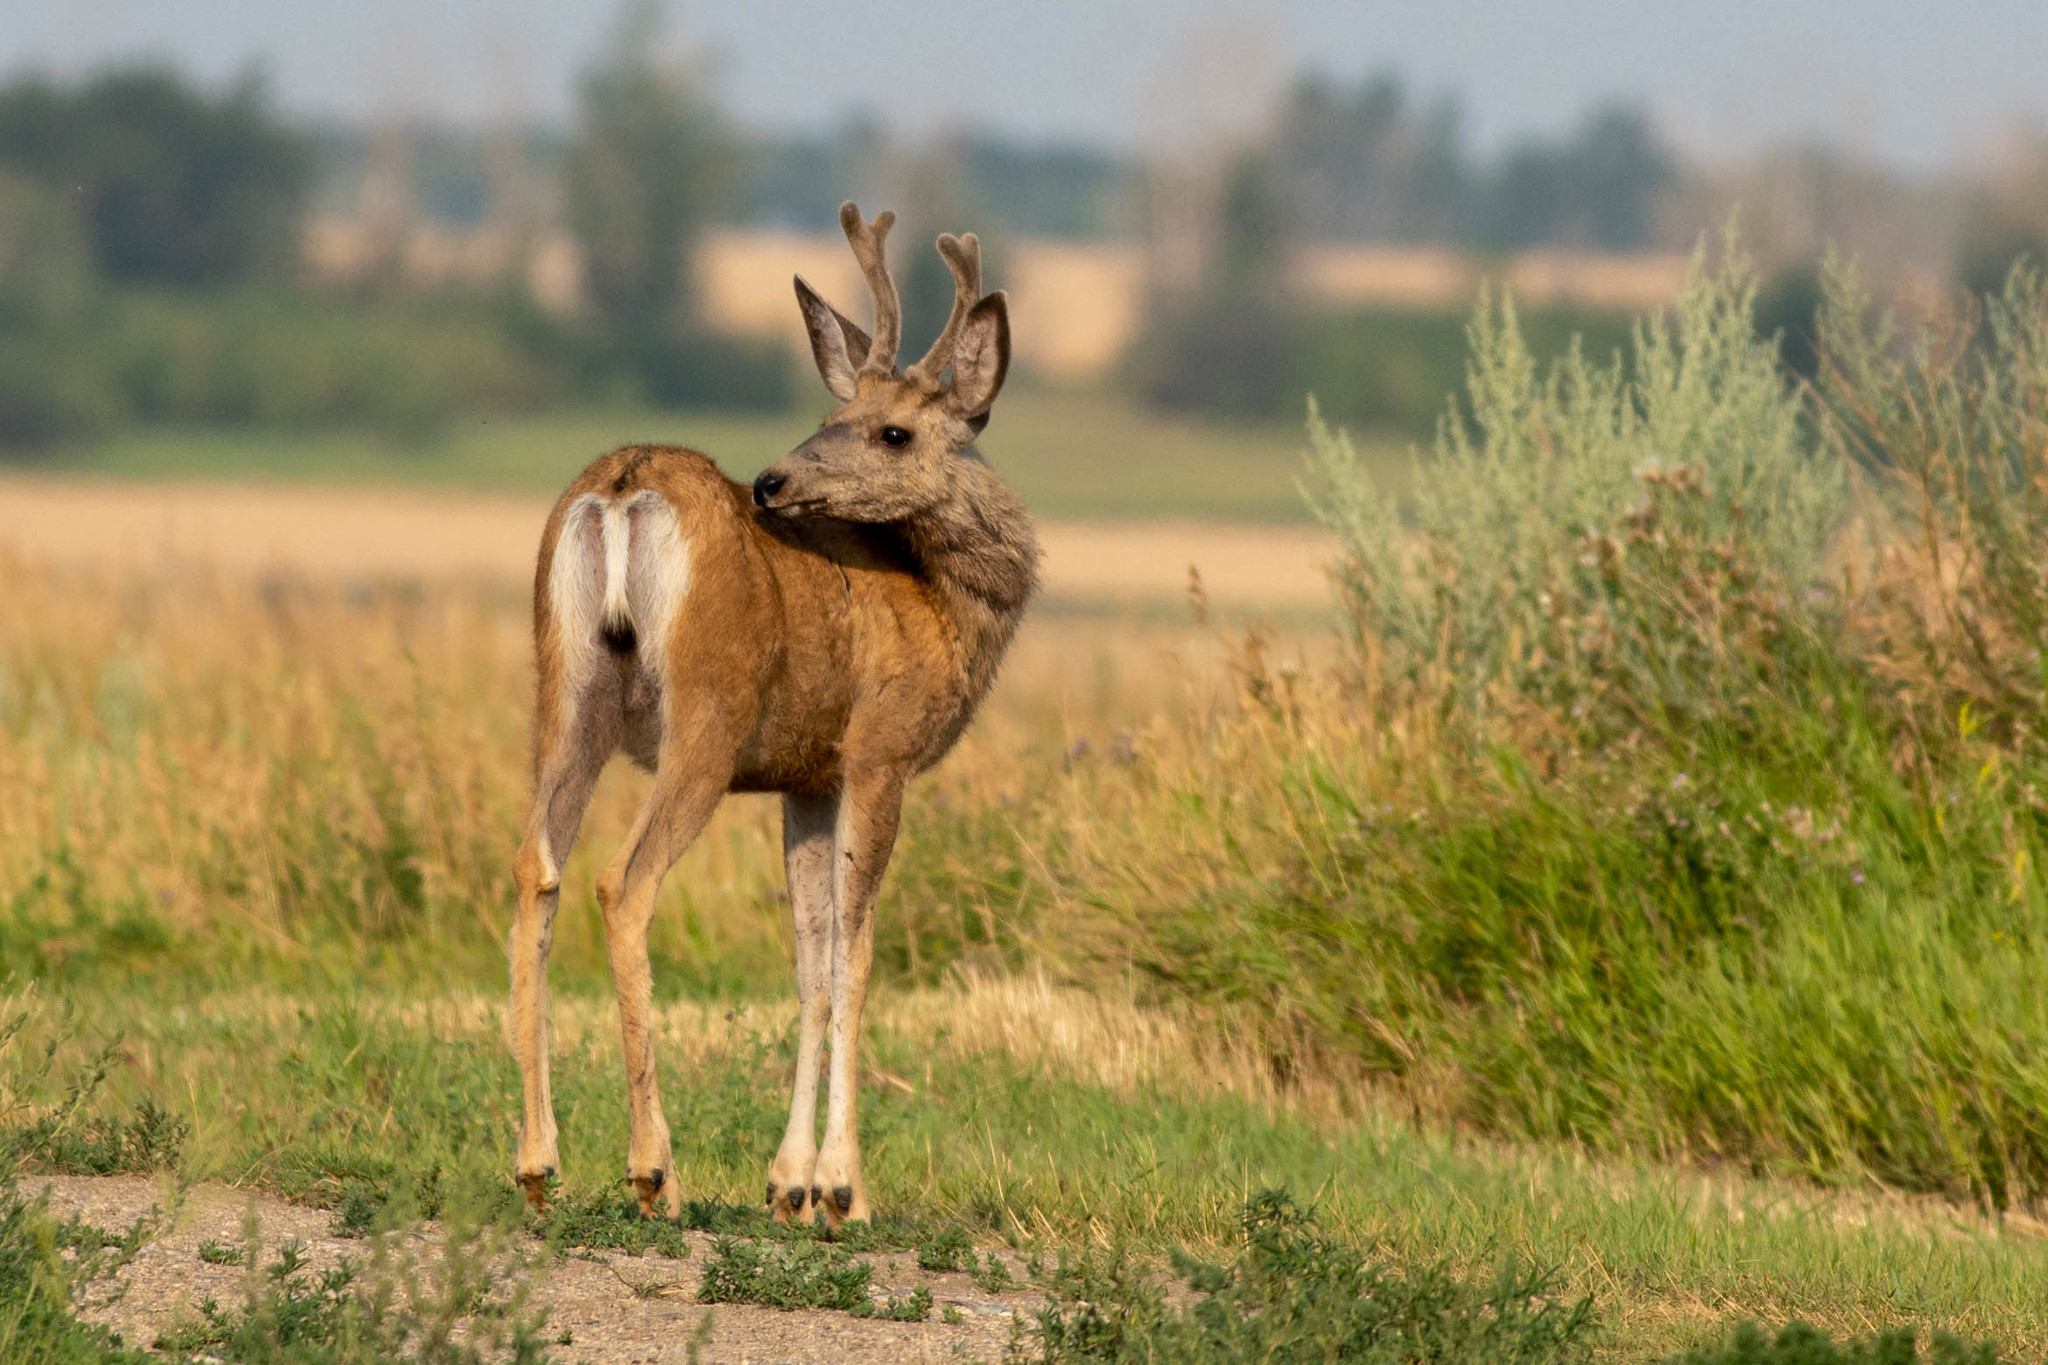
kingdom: Animalia
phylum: Chordata
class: Mammalia
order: Artiodactyla
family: Cervidae
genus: Odocoileus
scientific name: Odocoileus hemionus
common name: Mule deer
